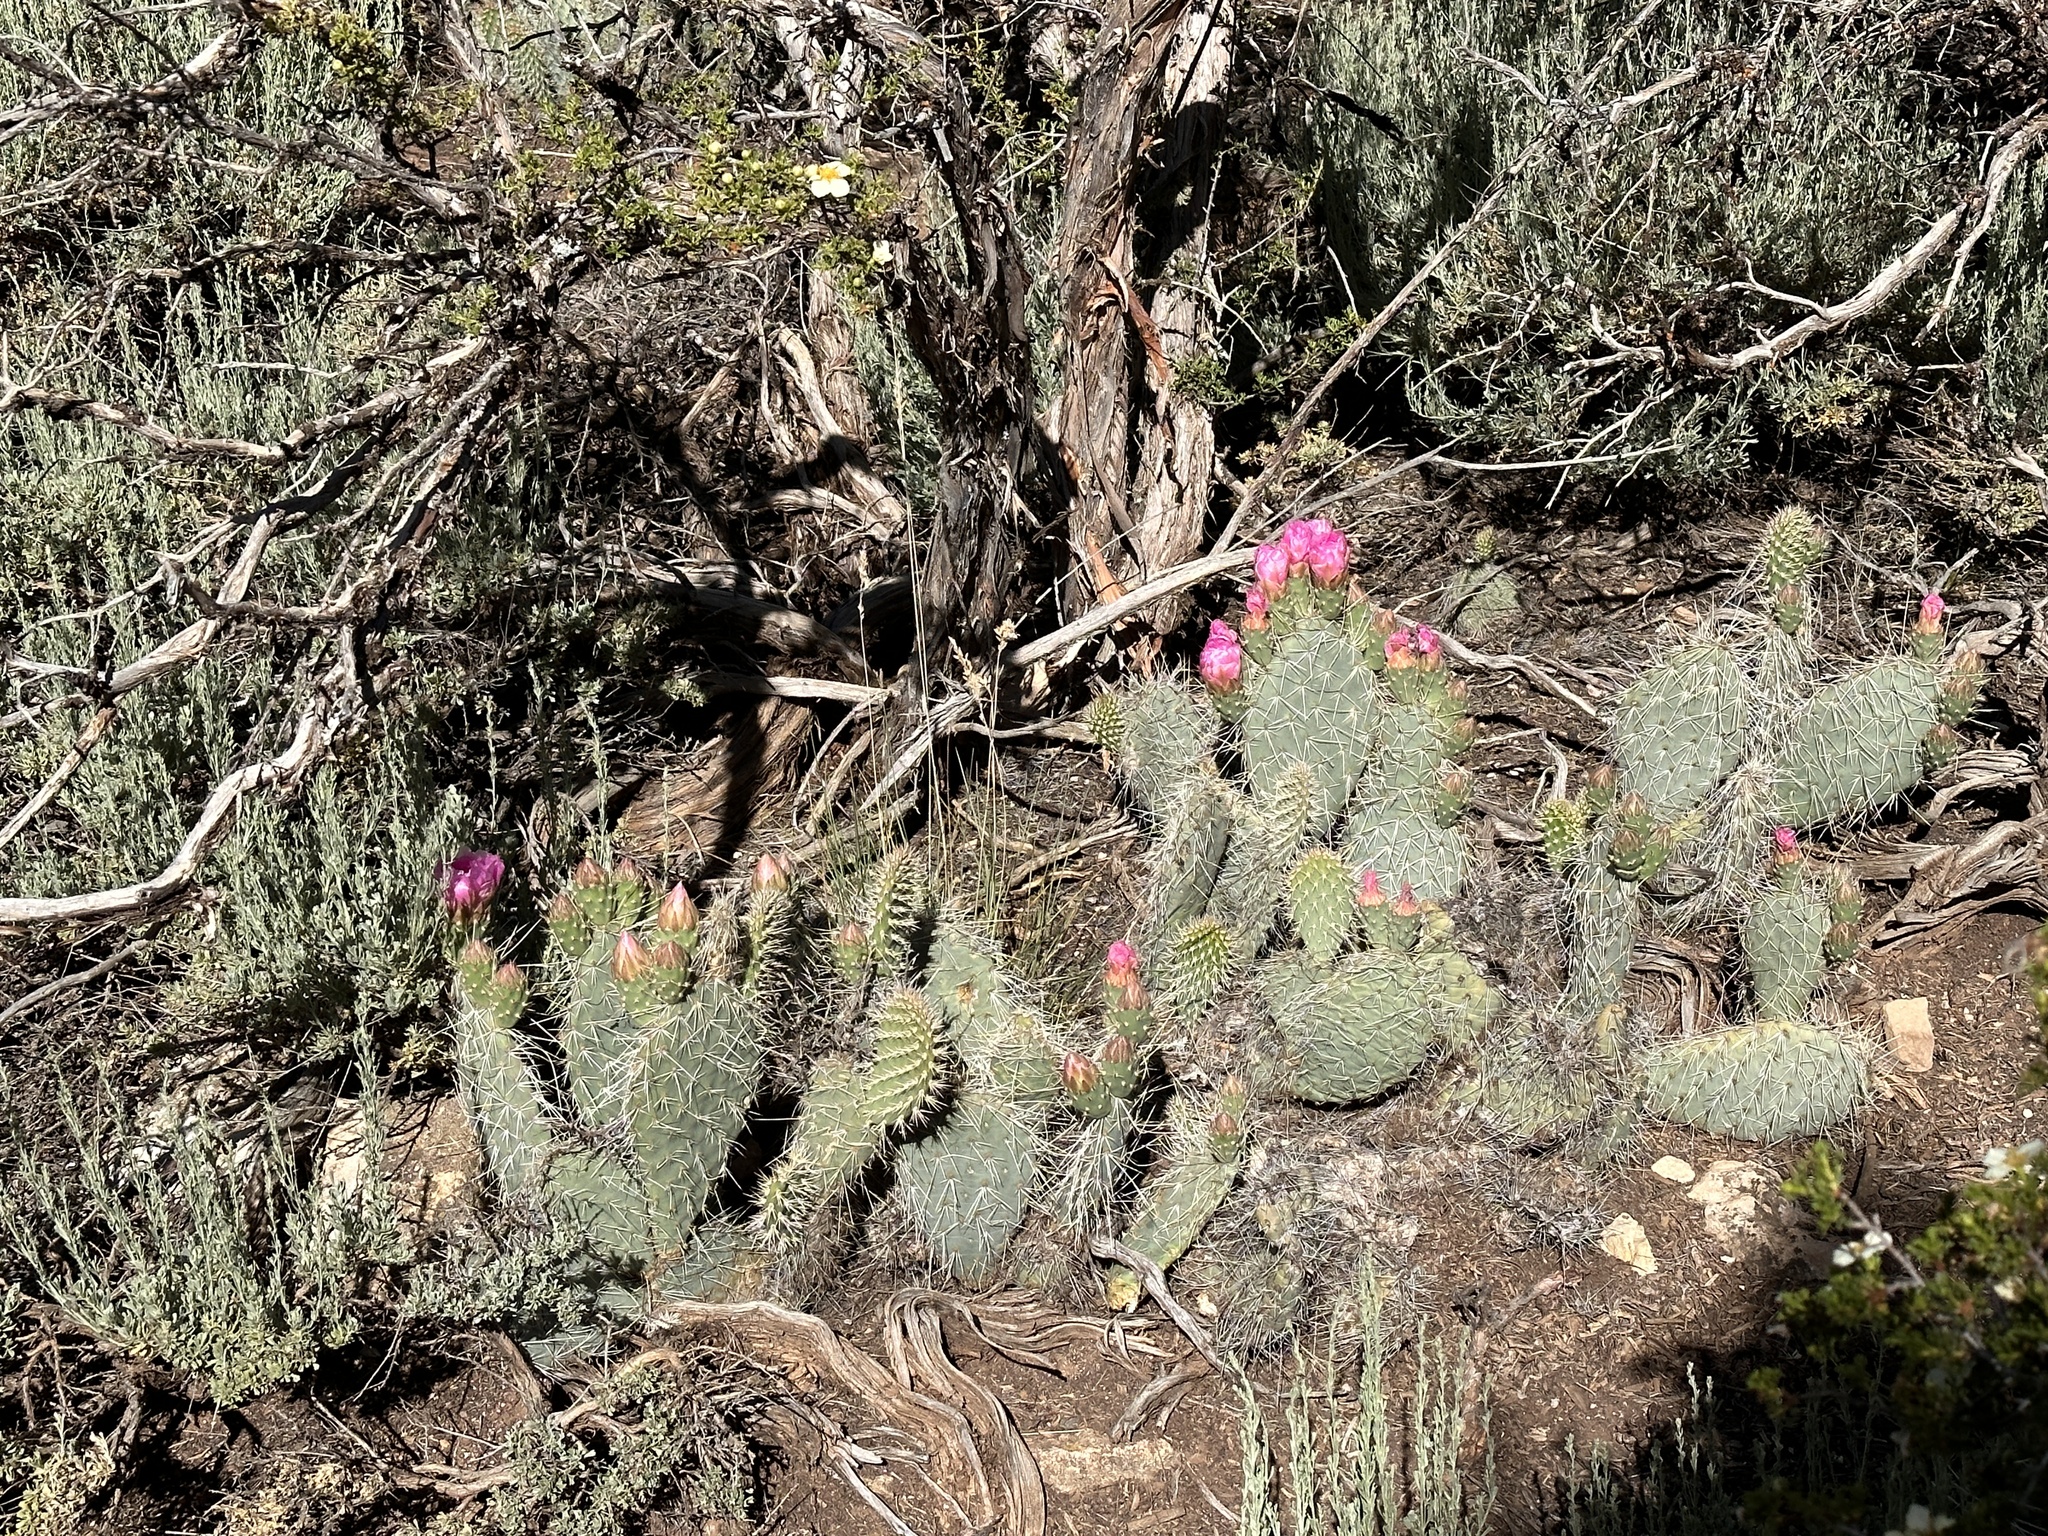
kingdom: Plantae
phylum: Tracheophyta
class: Magnoliopsida
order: Caryophyllales
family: Cactaceae
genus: Opuntia
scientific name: Opuntia polyacantha
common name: Plains prickly-pear
